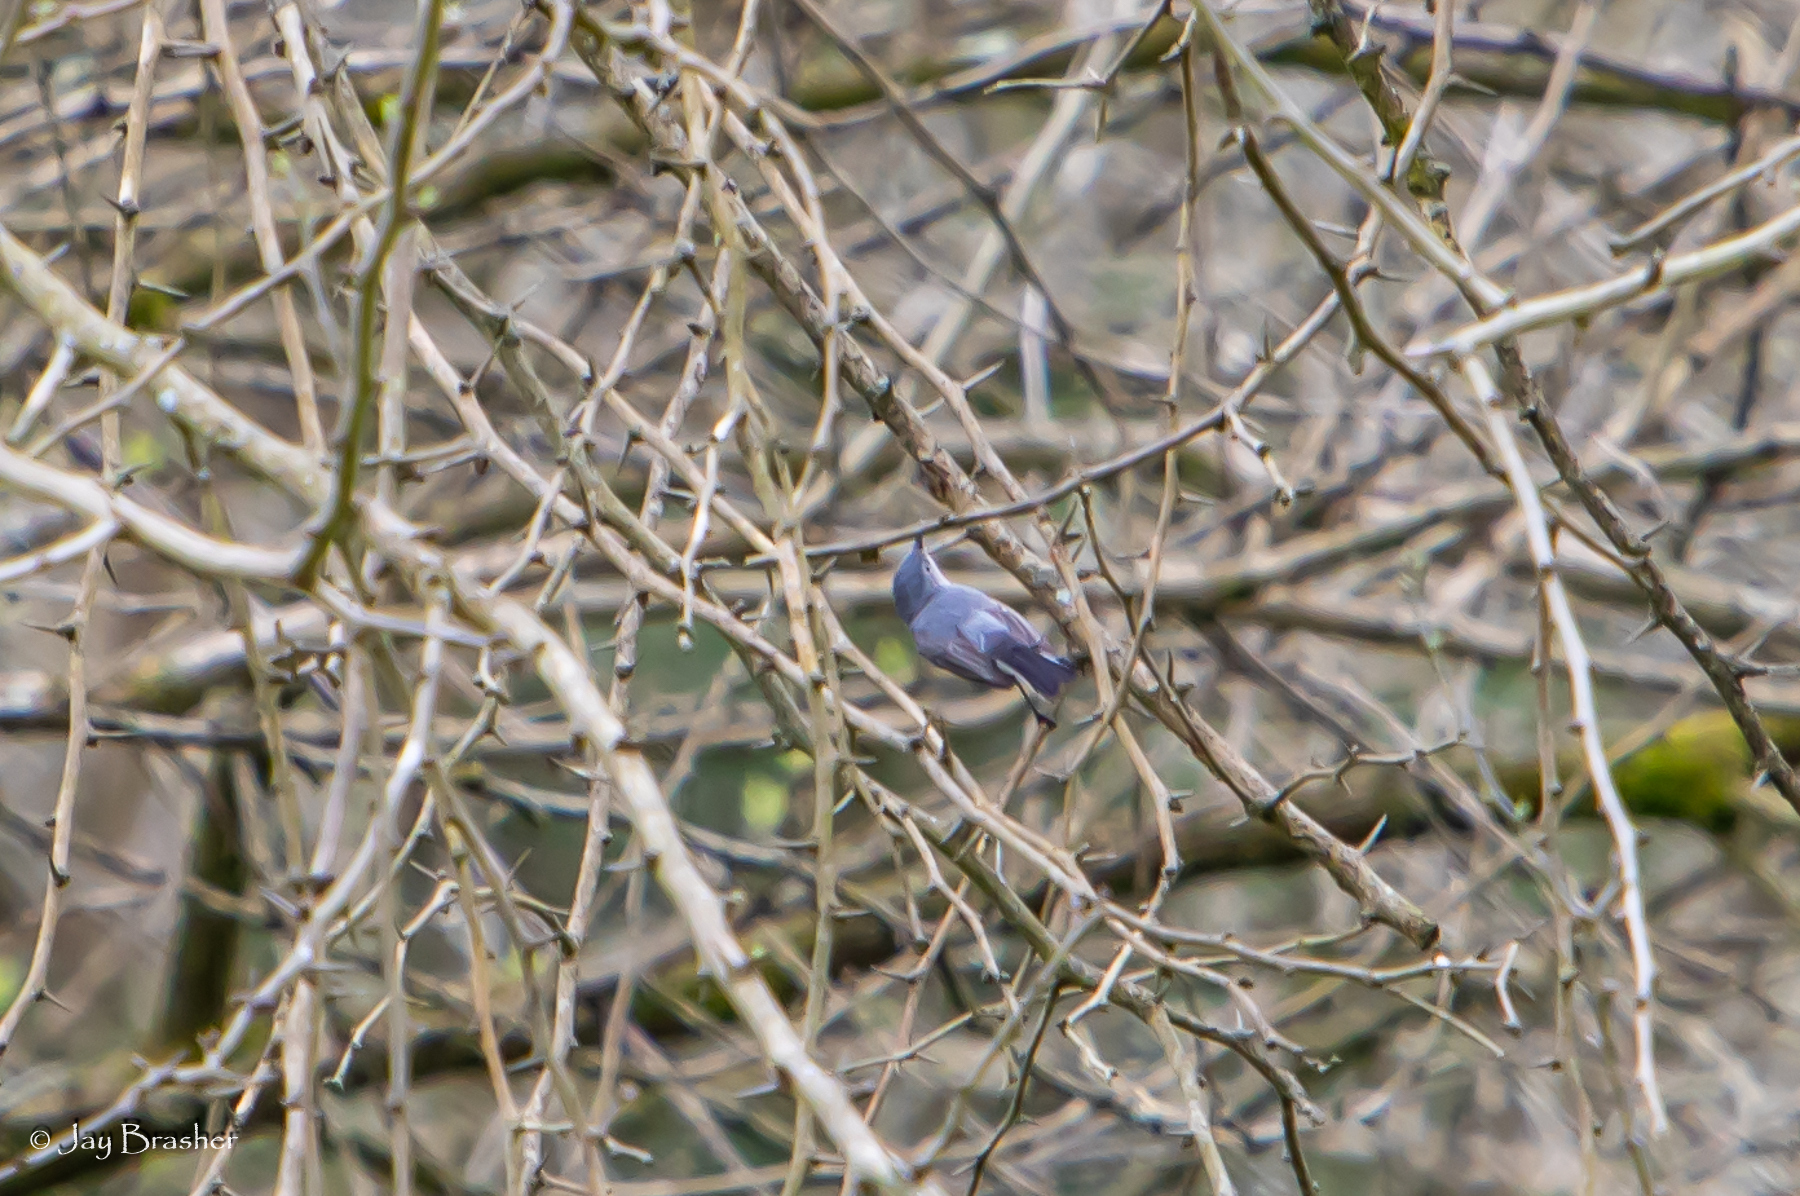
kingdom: Animalia
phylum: Chordata
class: Aves
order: Passeriformes
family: Polioptilidae
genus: Polioptila
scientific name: Polioptila caerulea
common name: Blue-gray gnatcatcher
